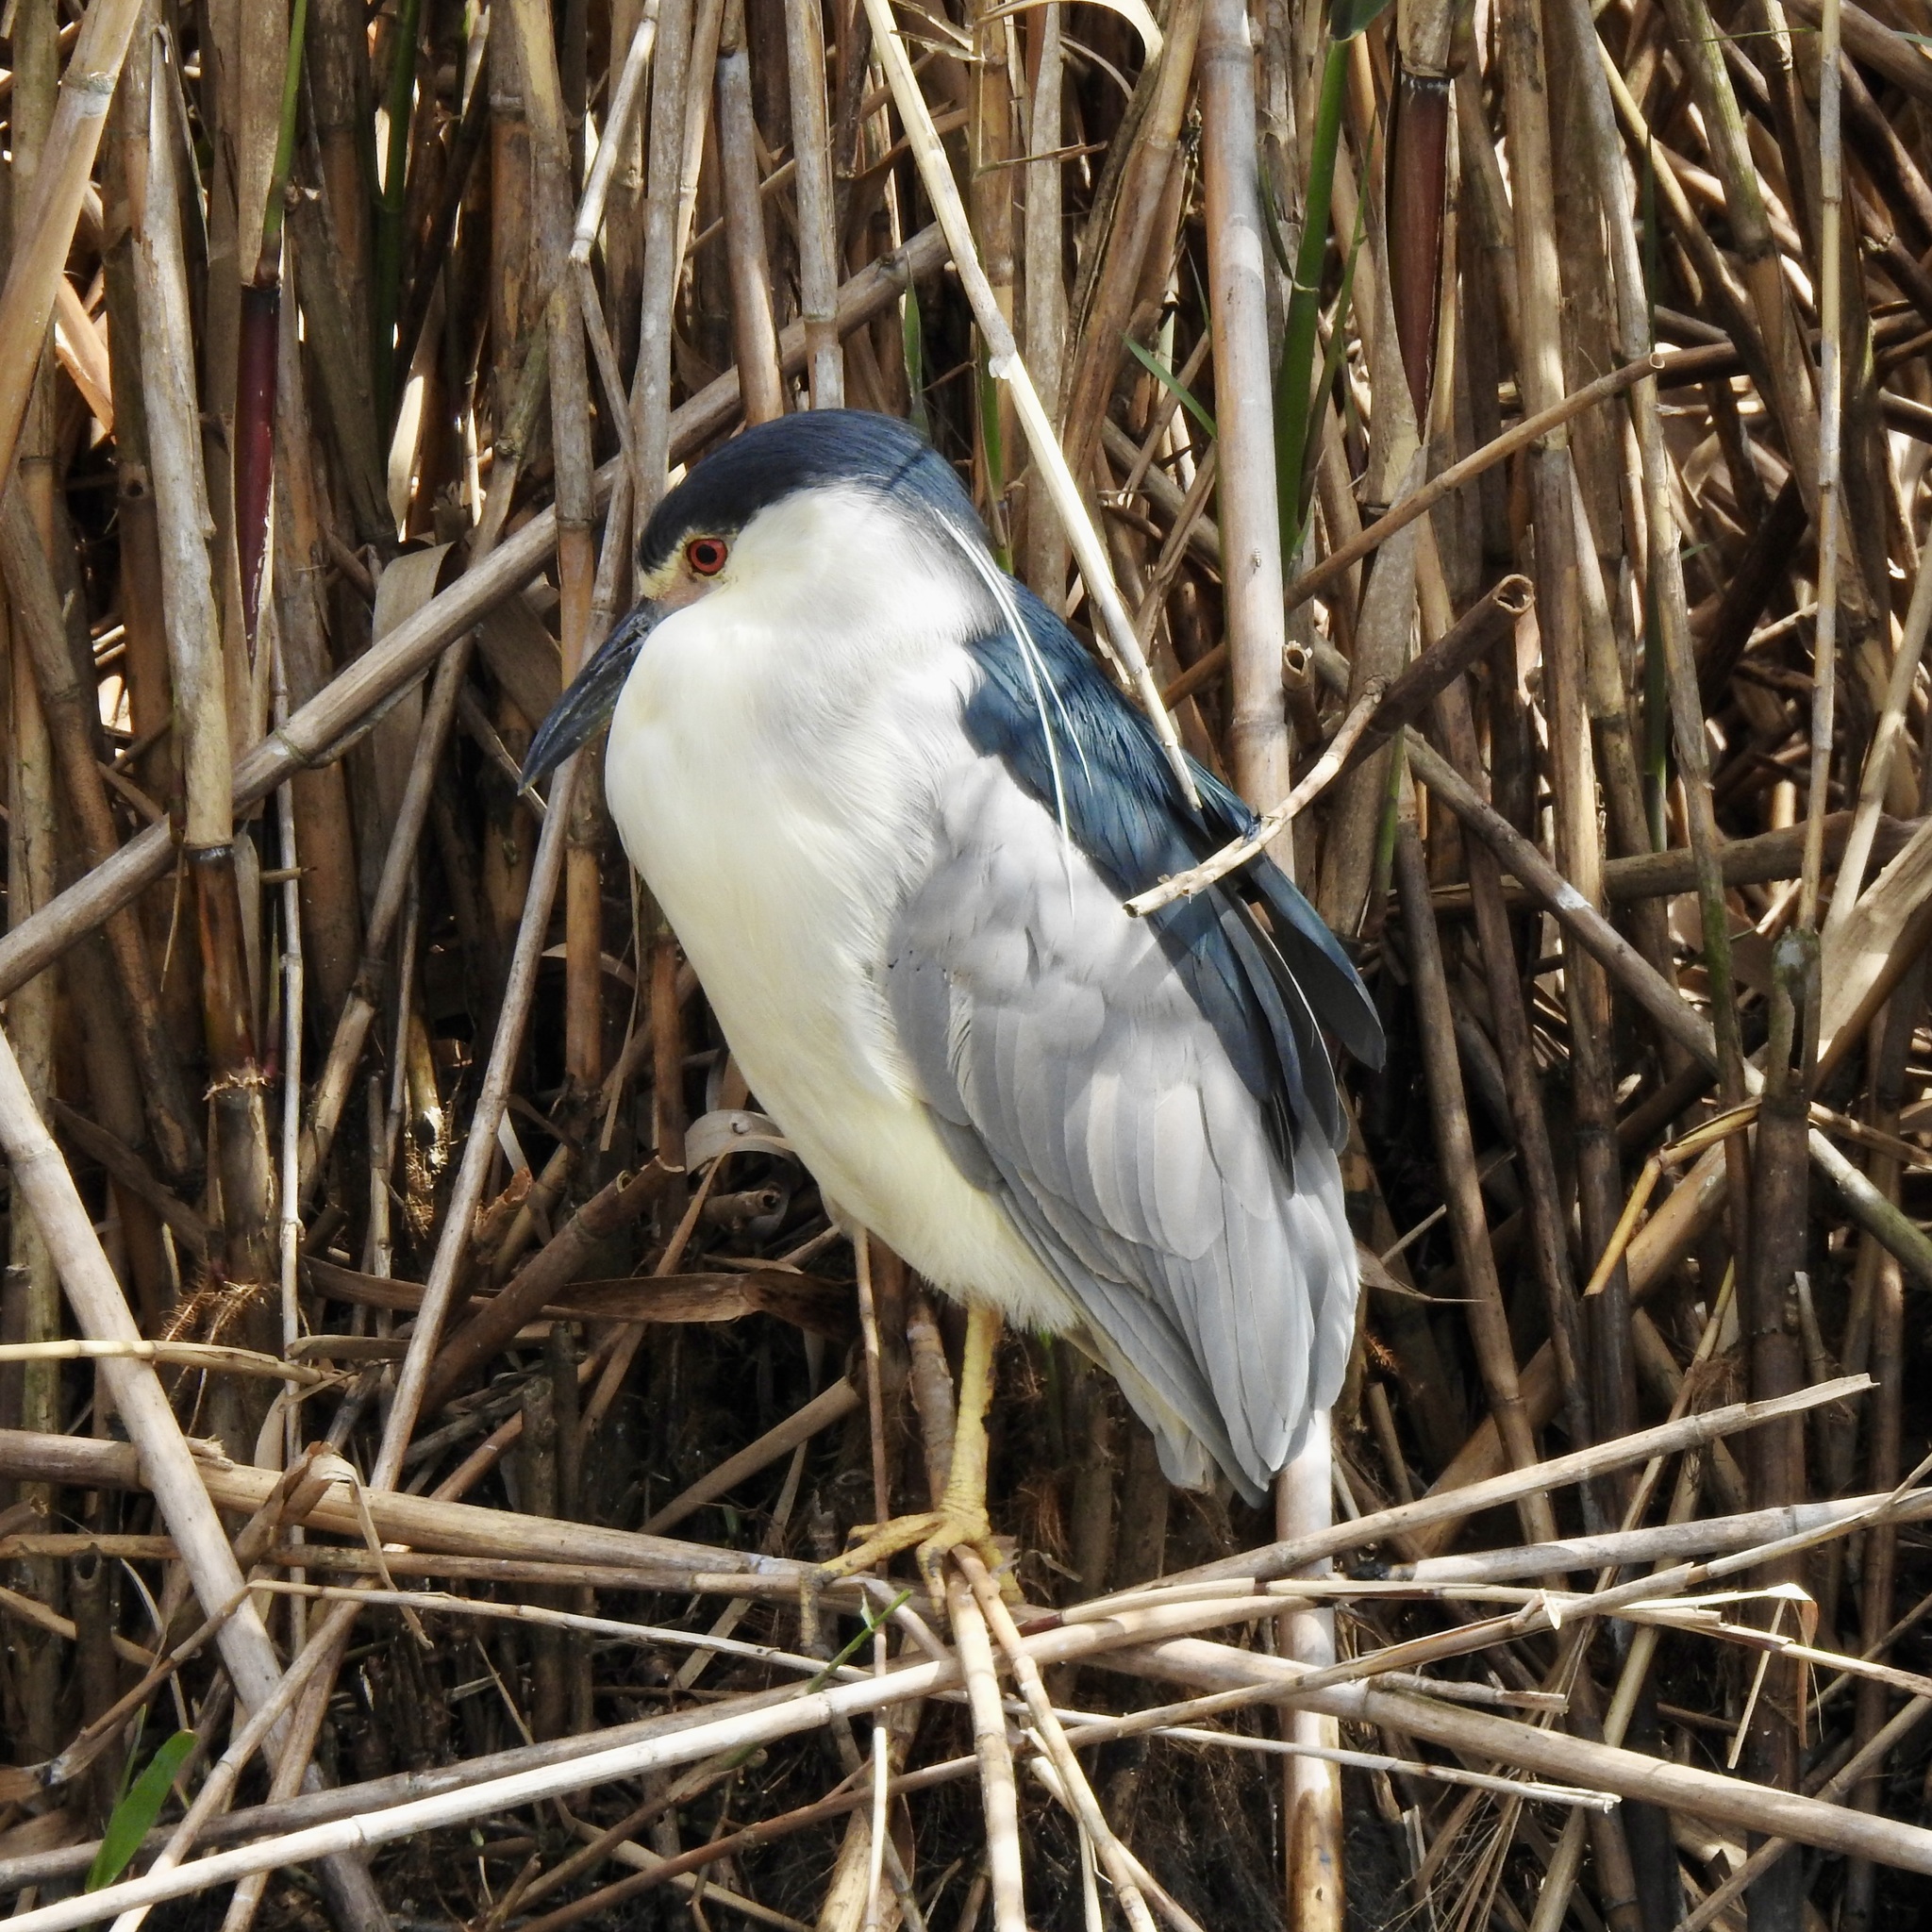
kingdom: Animalia
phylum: Chordata
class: Aves
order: Pelecaniformes
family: Ardeidae
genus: Nycticorax
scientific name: Nycticorax nycticorax
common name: Black-crowned night heron
